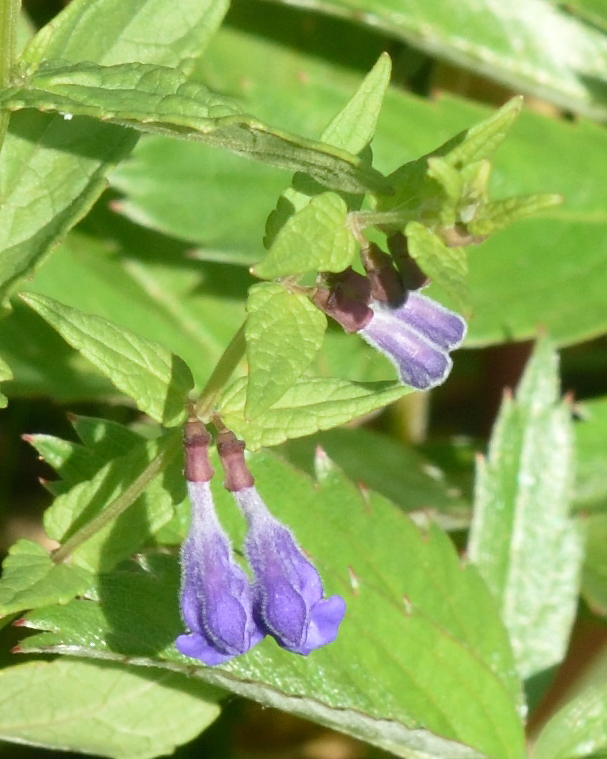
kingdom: Plantae
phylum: Tracheophyta
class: Magnoliopsida
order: Lamiales
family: Lamiaceae
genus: Scutellaria
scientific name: Scutellaria galericulata
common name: Skullcap
